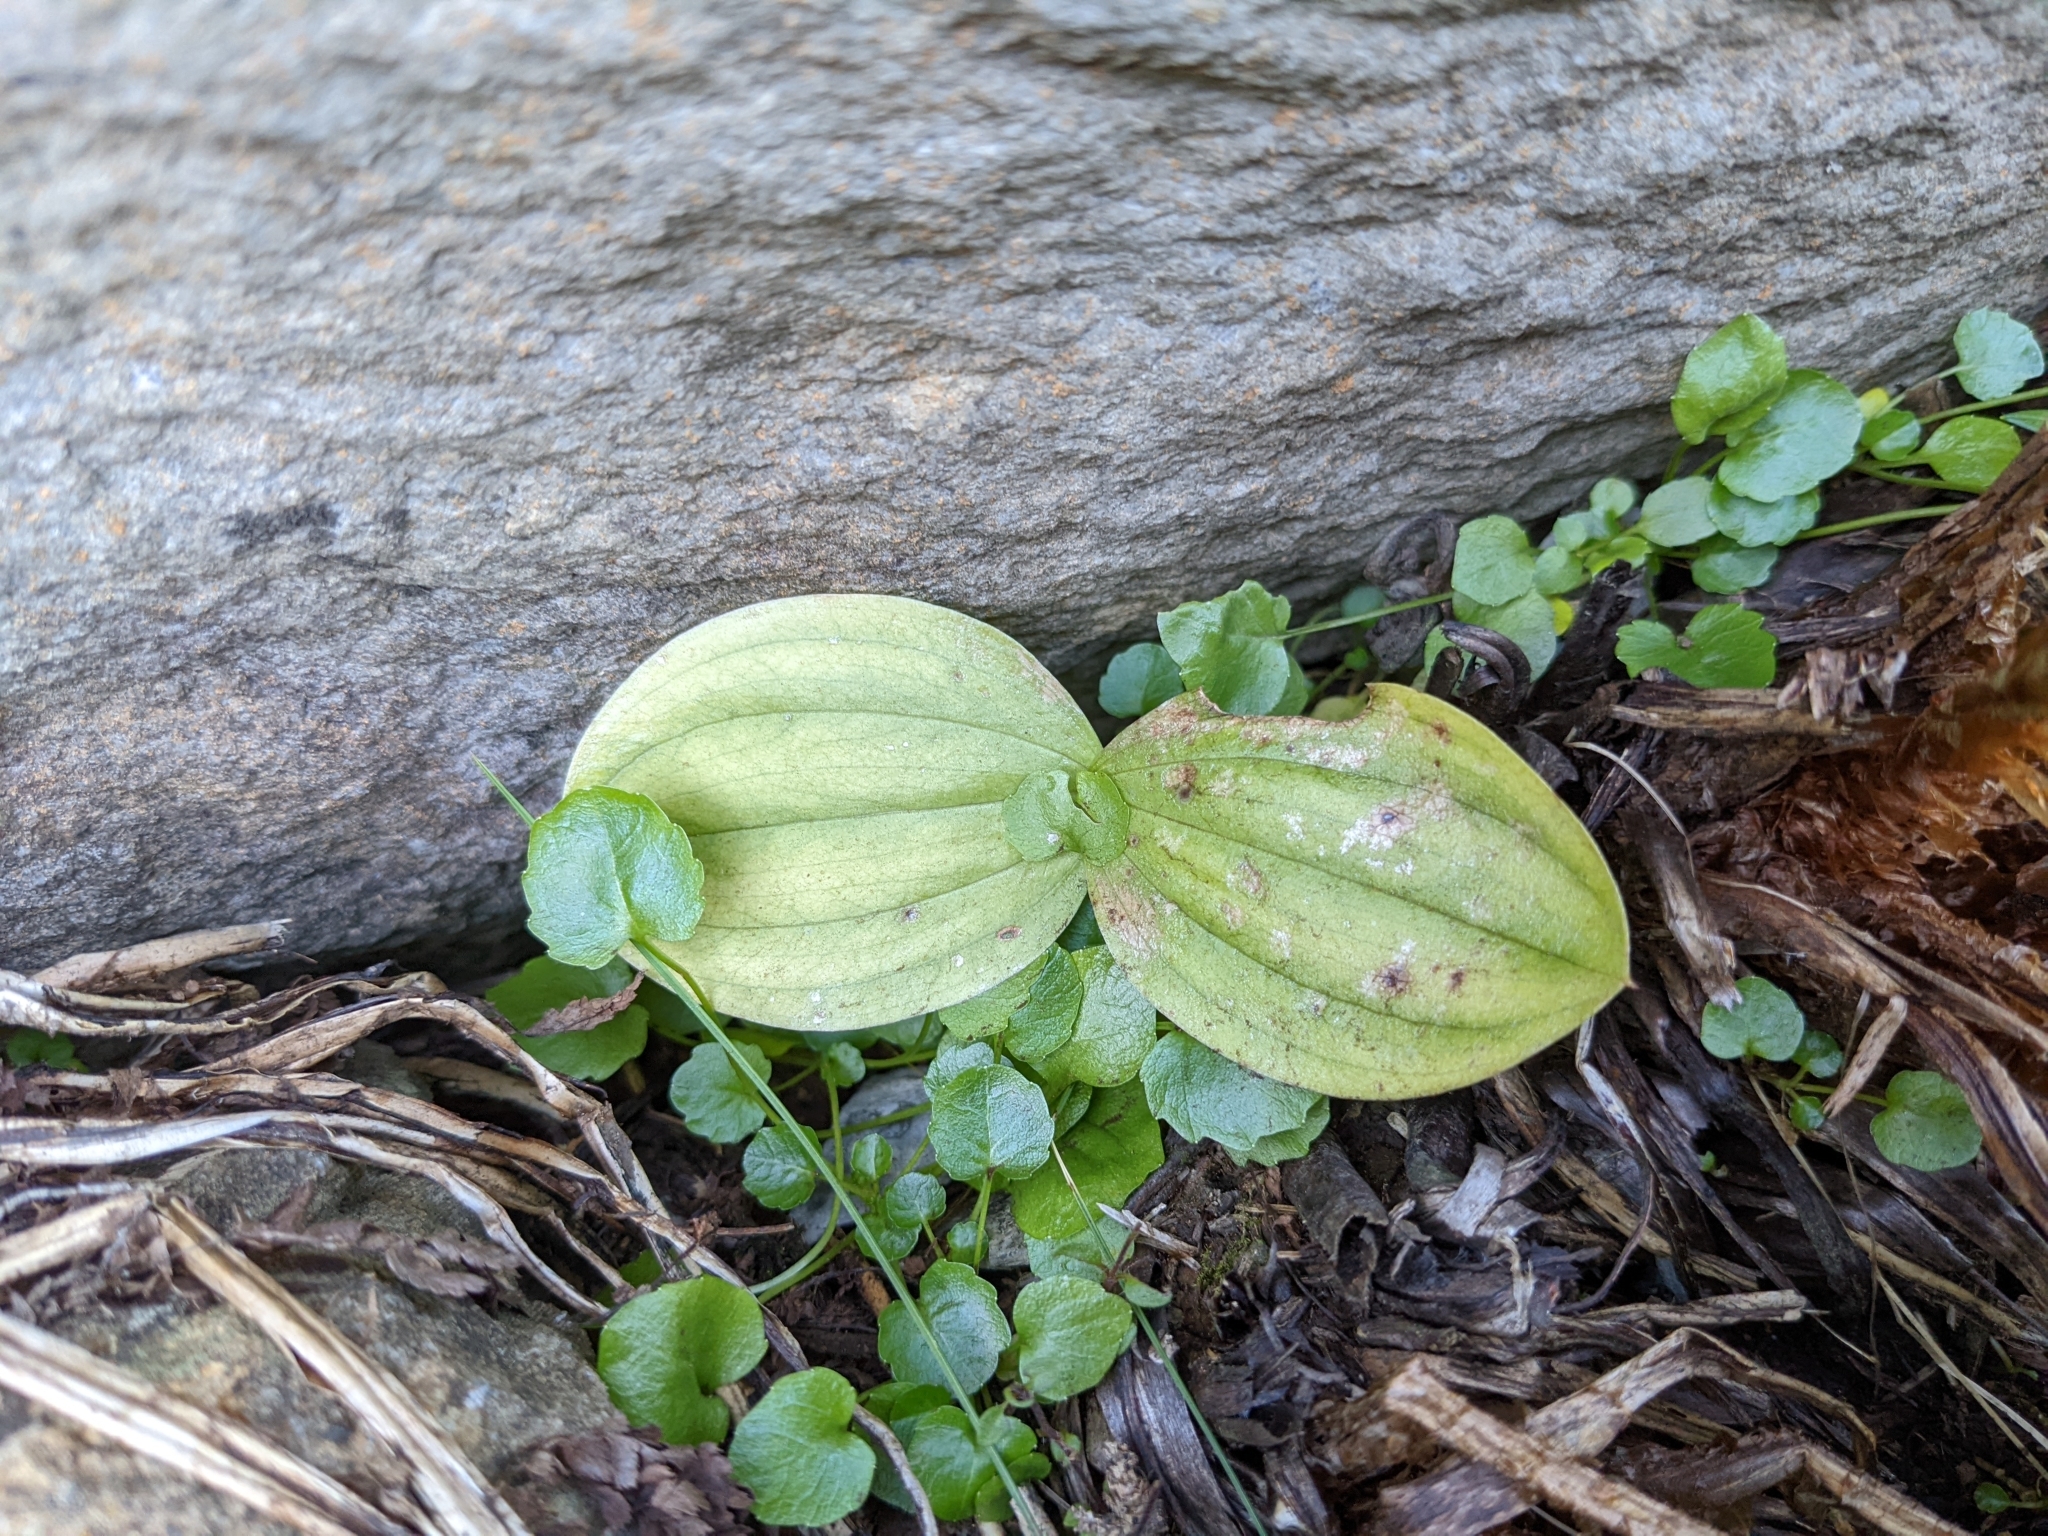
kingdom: Plantae
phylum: Tracheophyta
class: Liliopsida
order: Asparagales
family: Orchidaceae
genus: Neottia
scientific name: Neottia ovata
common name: Common twayblade
